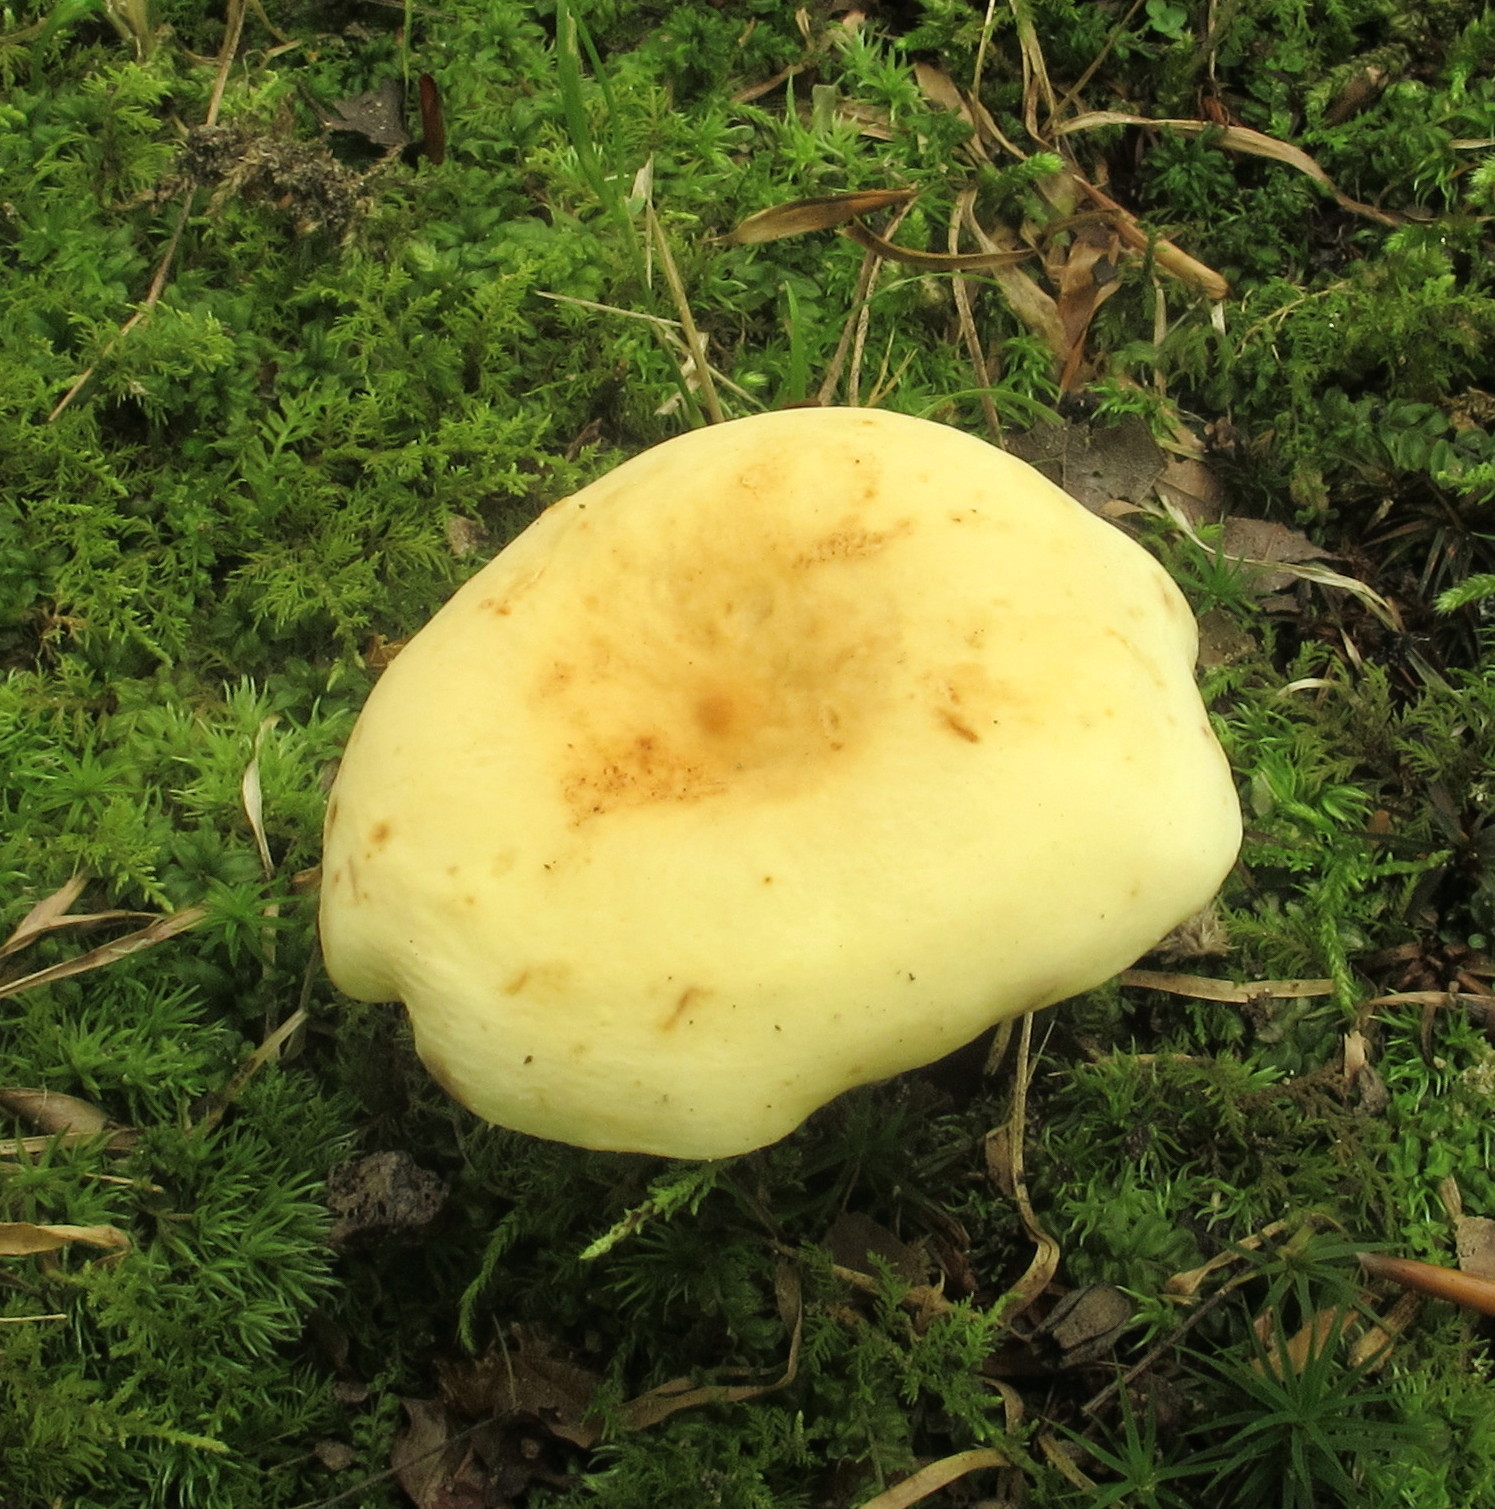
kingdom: Fungi
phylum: Basidiomycota
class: Agaricomycetes
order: Russulales
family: Russulaceae
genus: Lactifluus
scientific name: Lactifluus volemus
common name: Fishy milkcap
